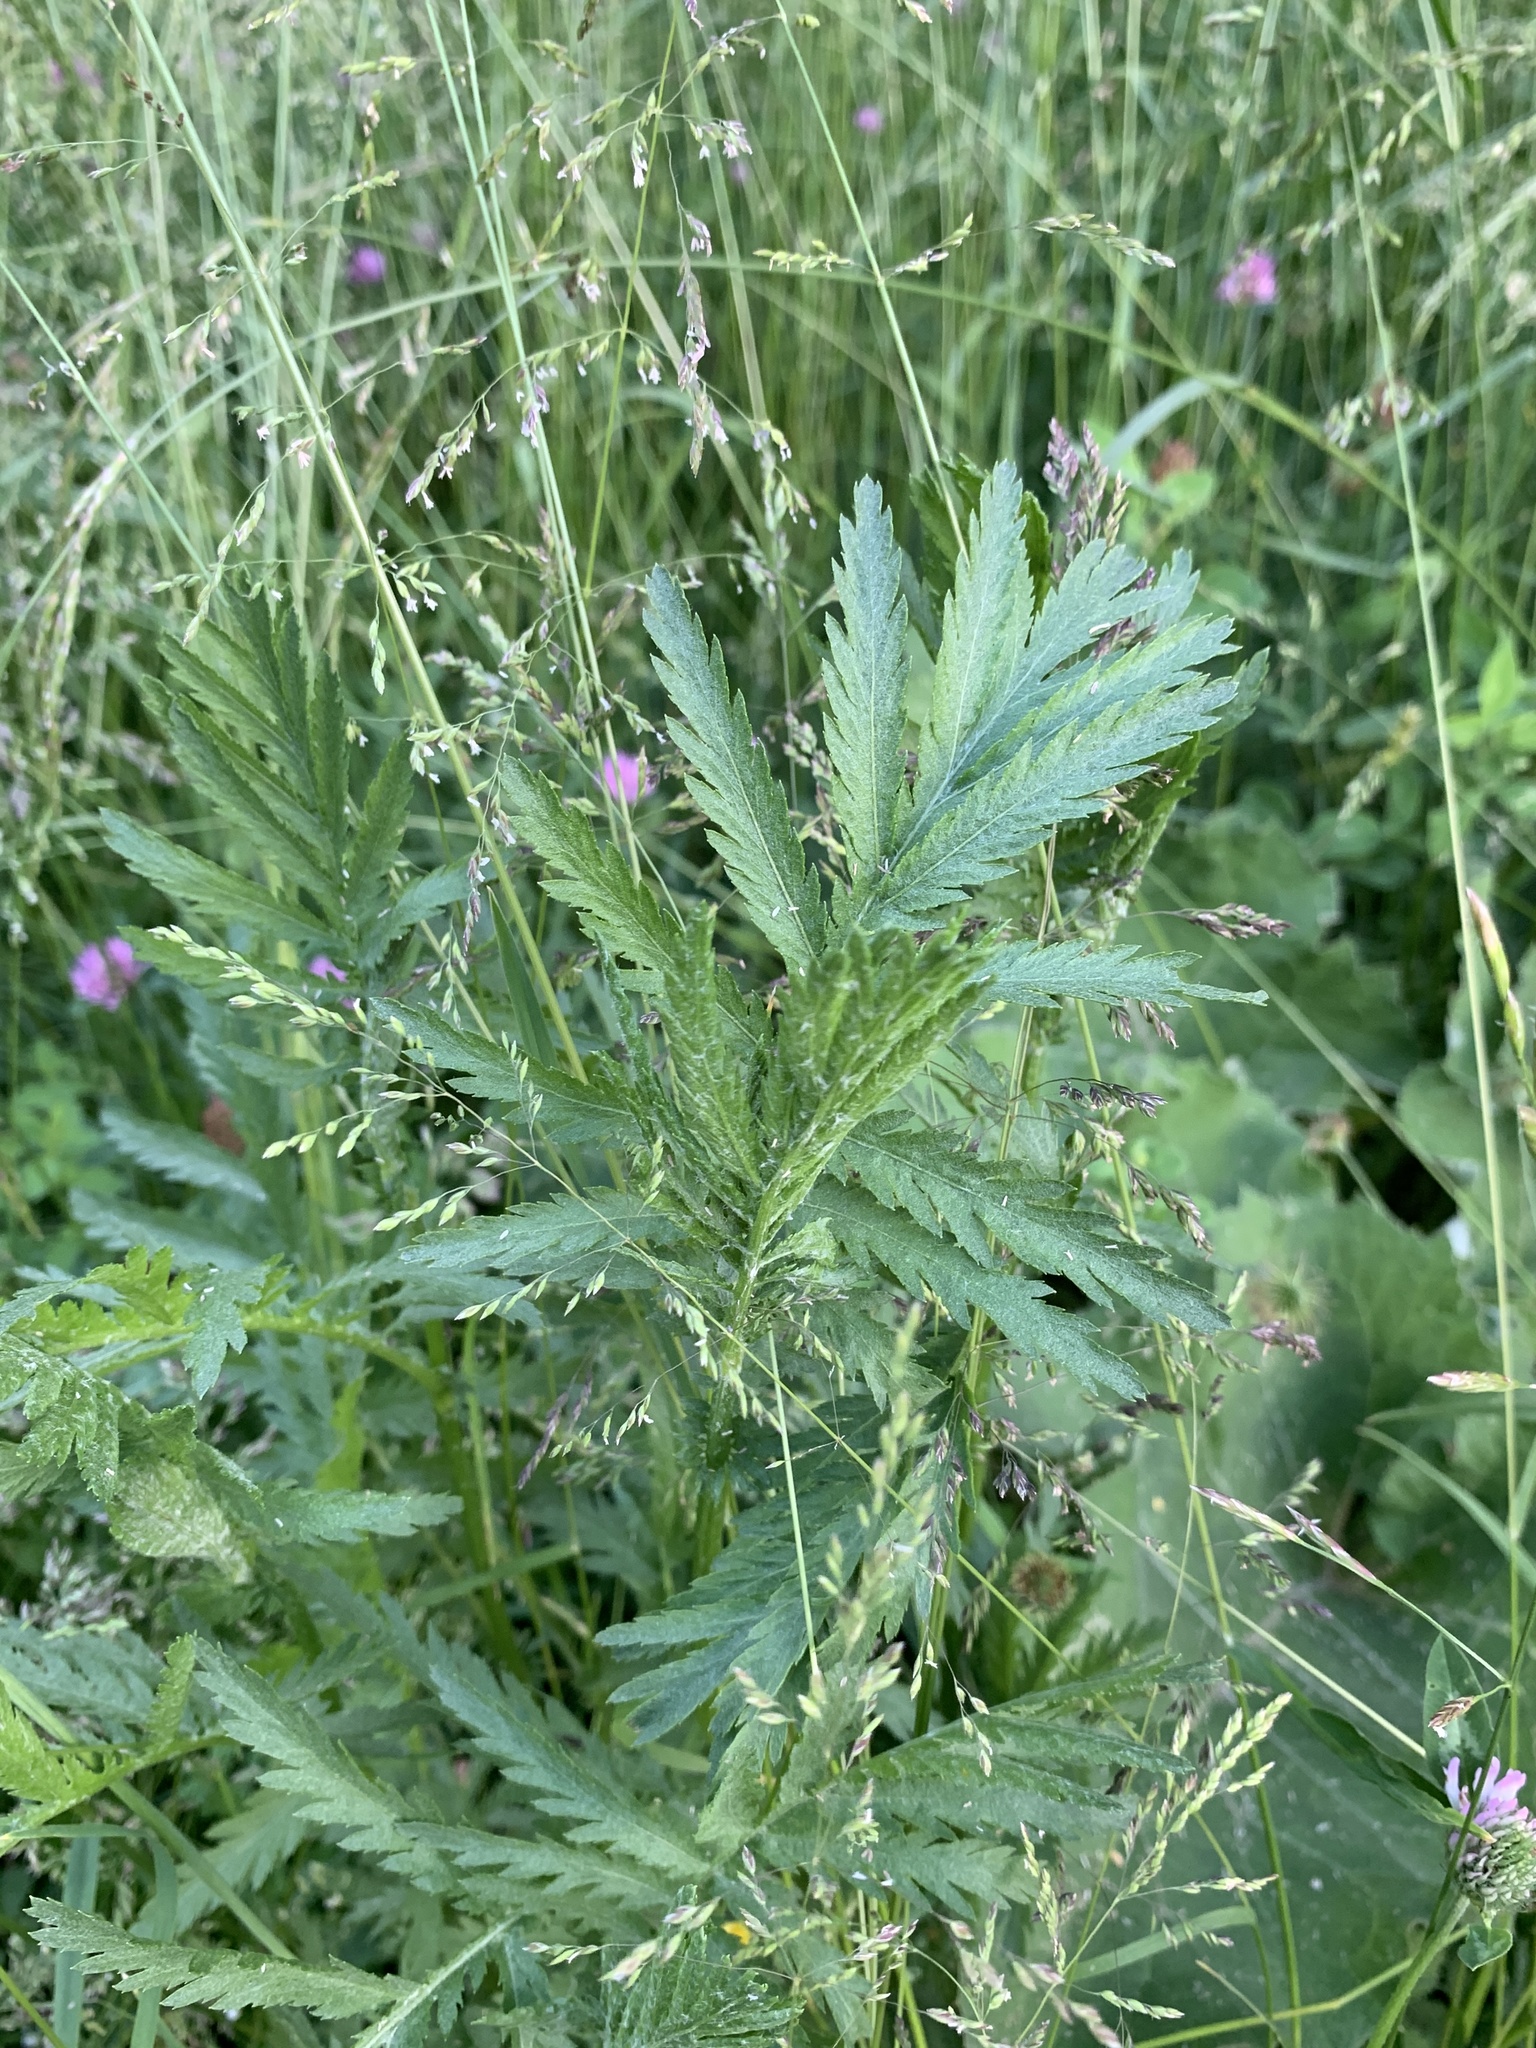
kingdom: Plantae
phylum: Tracheophyta
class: Magnoliopsida
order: Asterales
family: Asteraceae
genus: Tanacetum
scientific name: Tanacetum vulgare
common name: Common tansy
